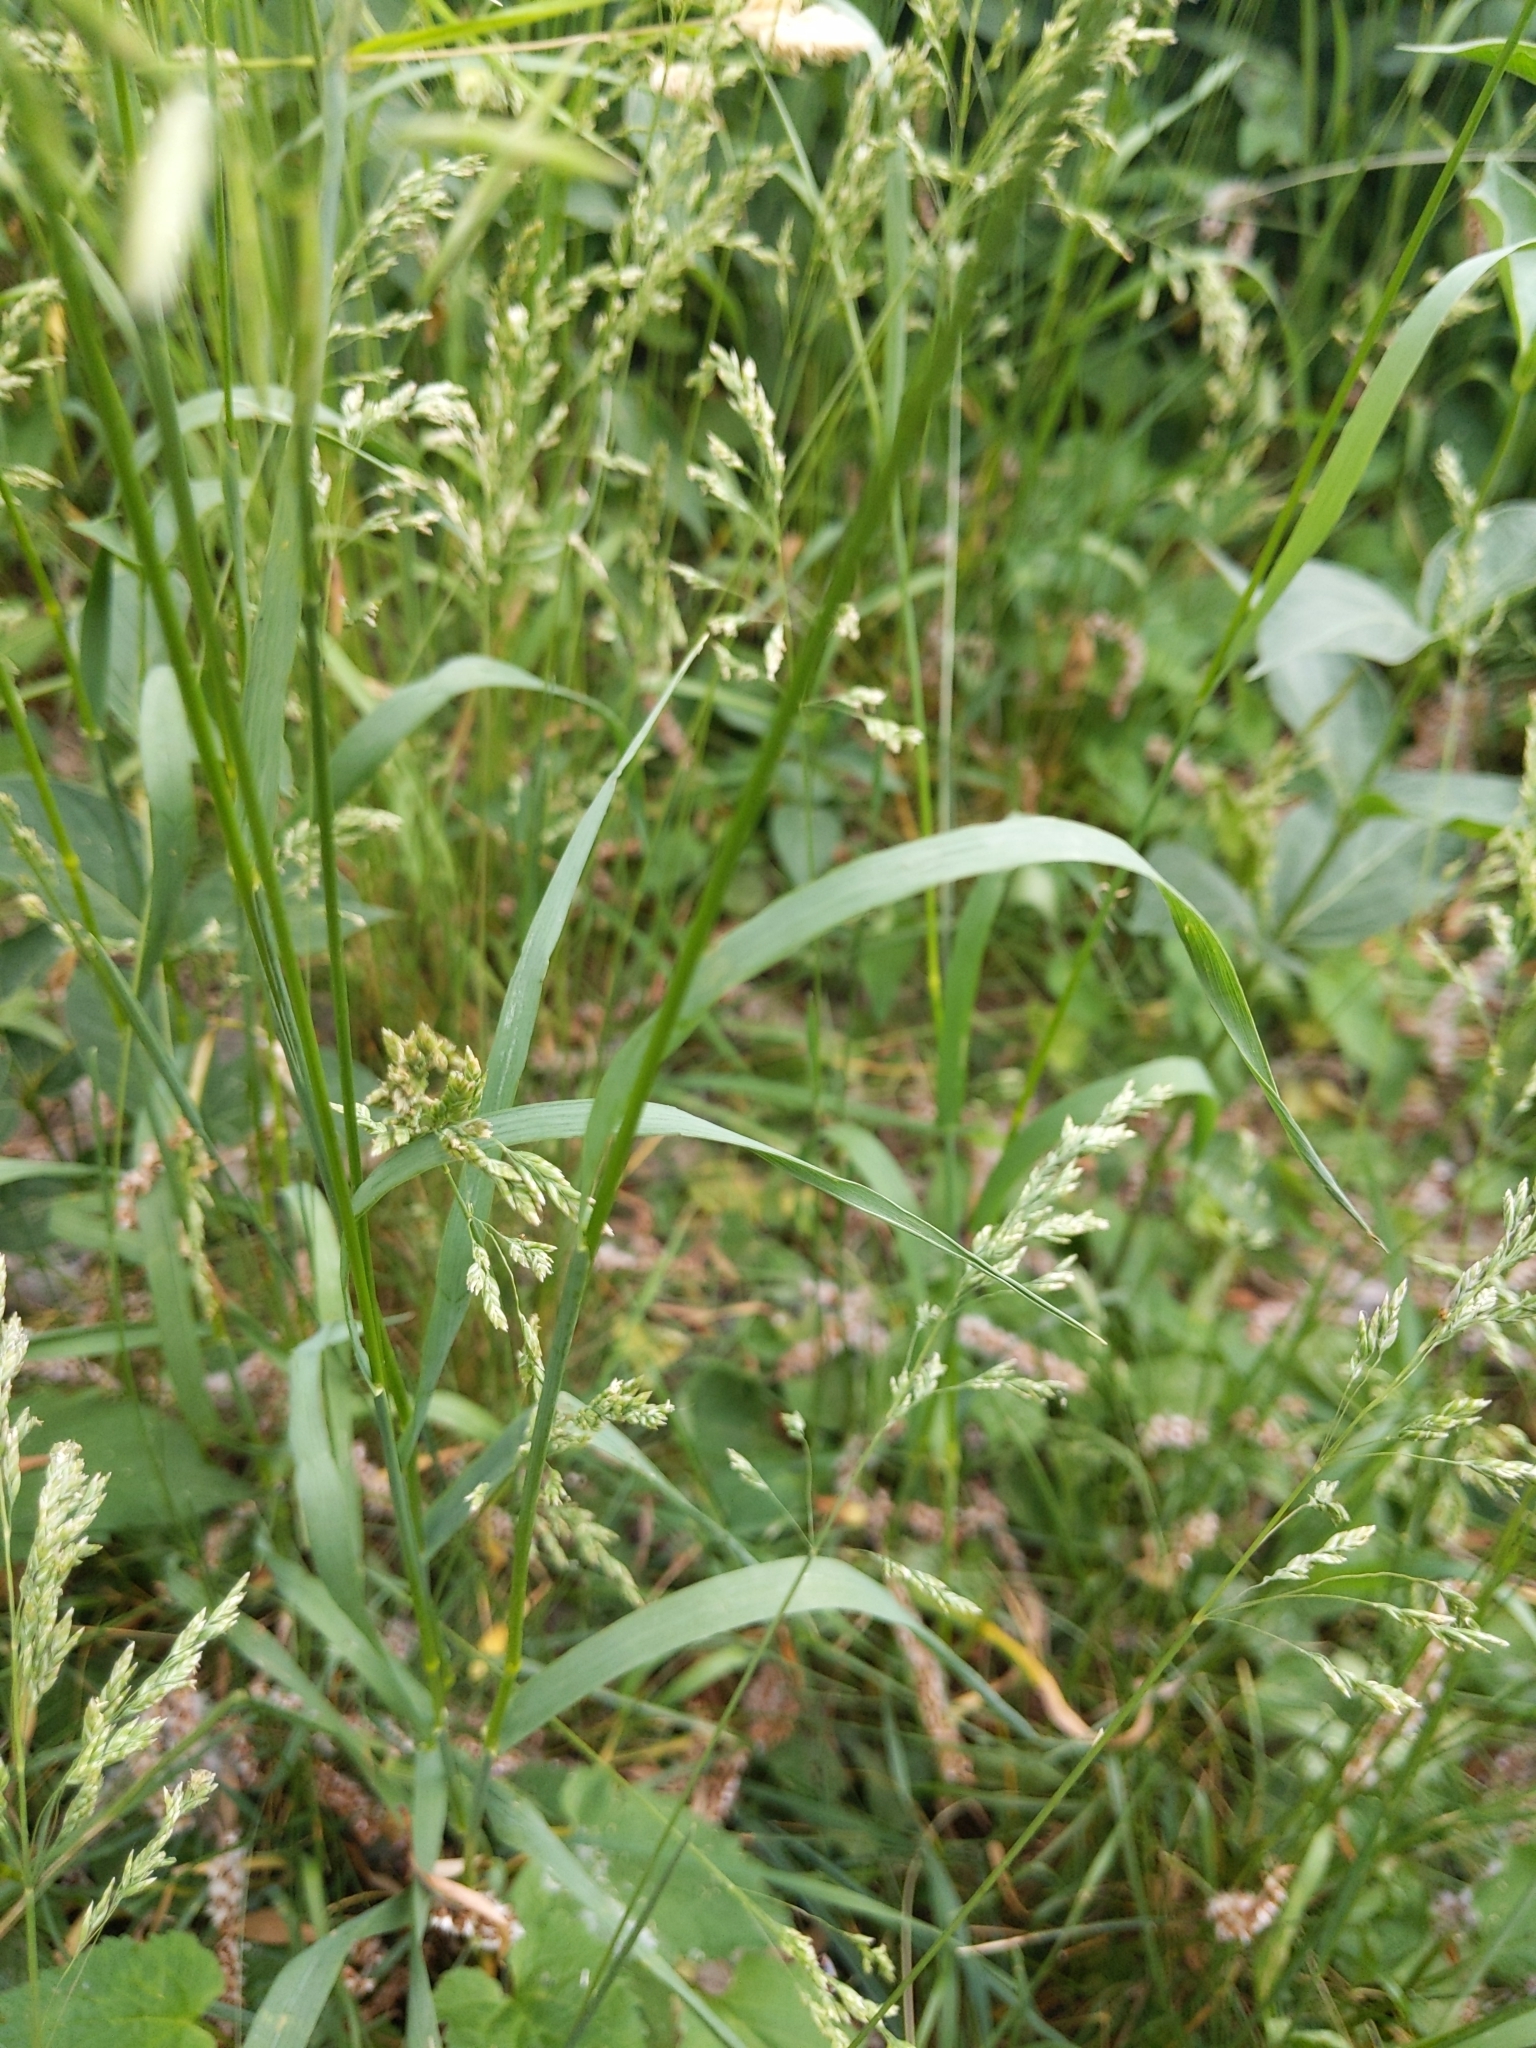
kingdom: Plantae
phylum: Tracheophyta
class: Liliopsida
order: Poales
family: Poaceae
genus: Bromus
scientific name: Bromus inermis
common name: Smooth brome
